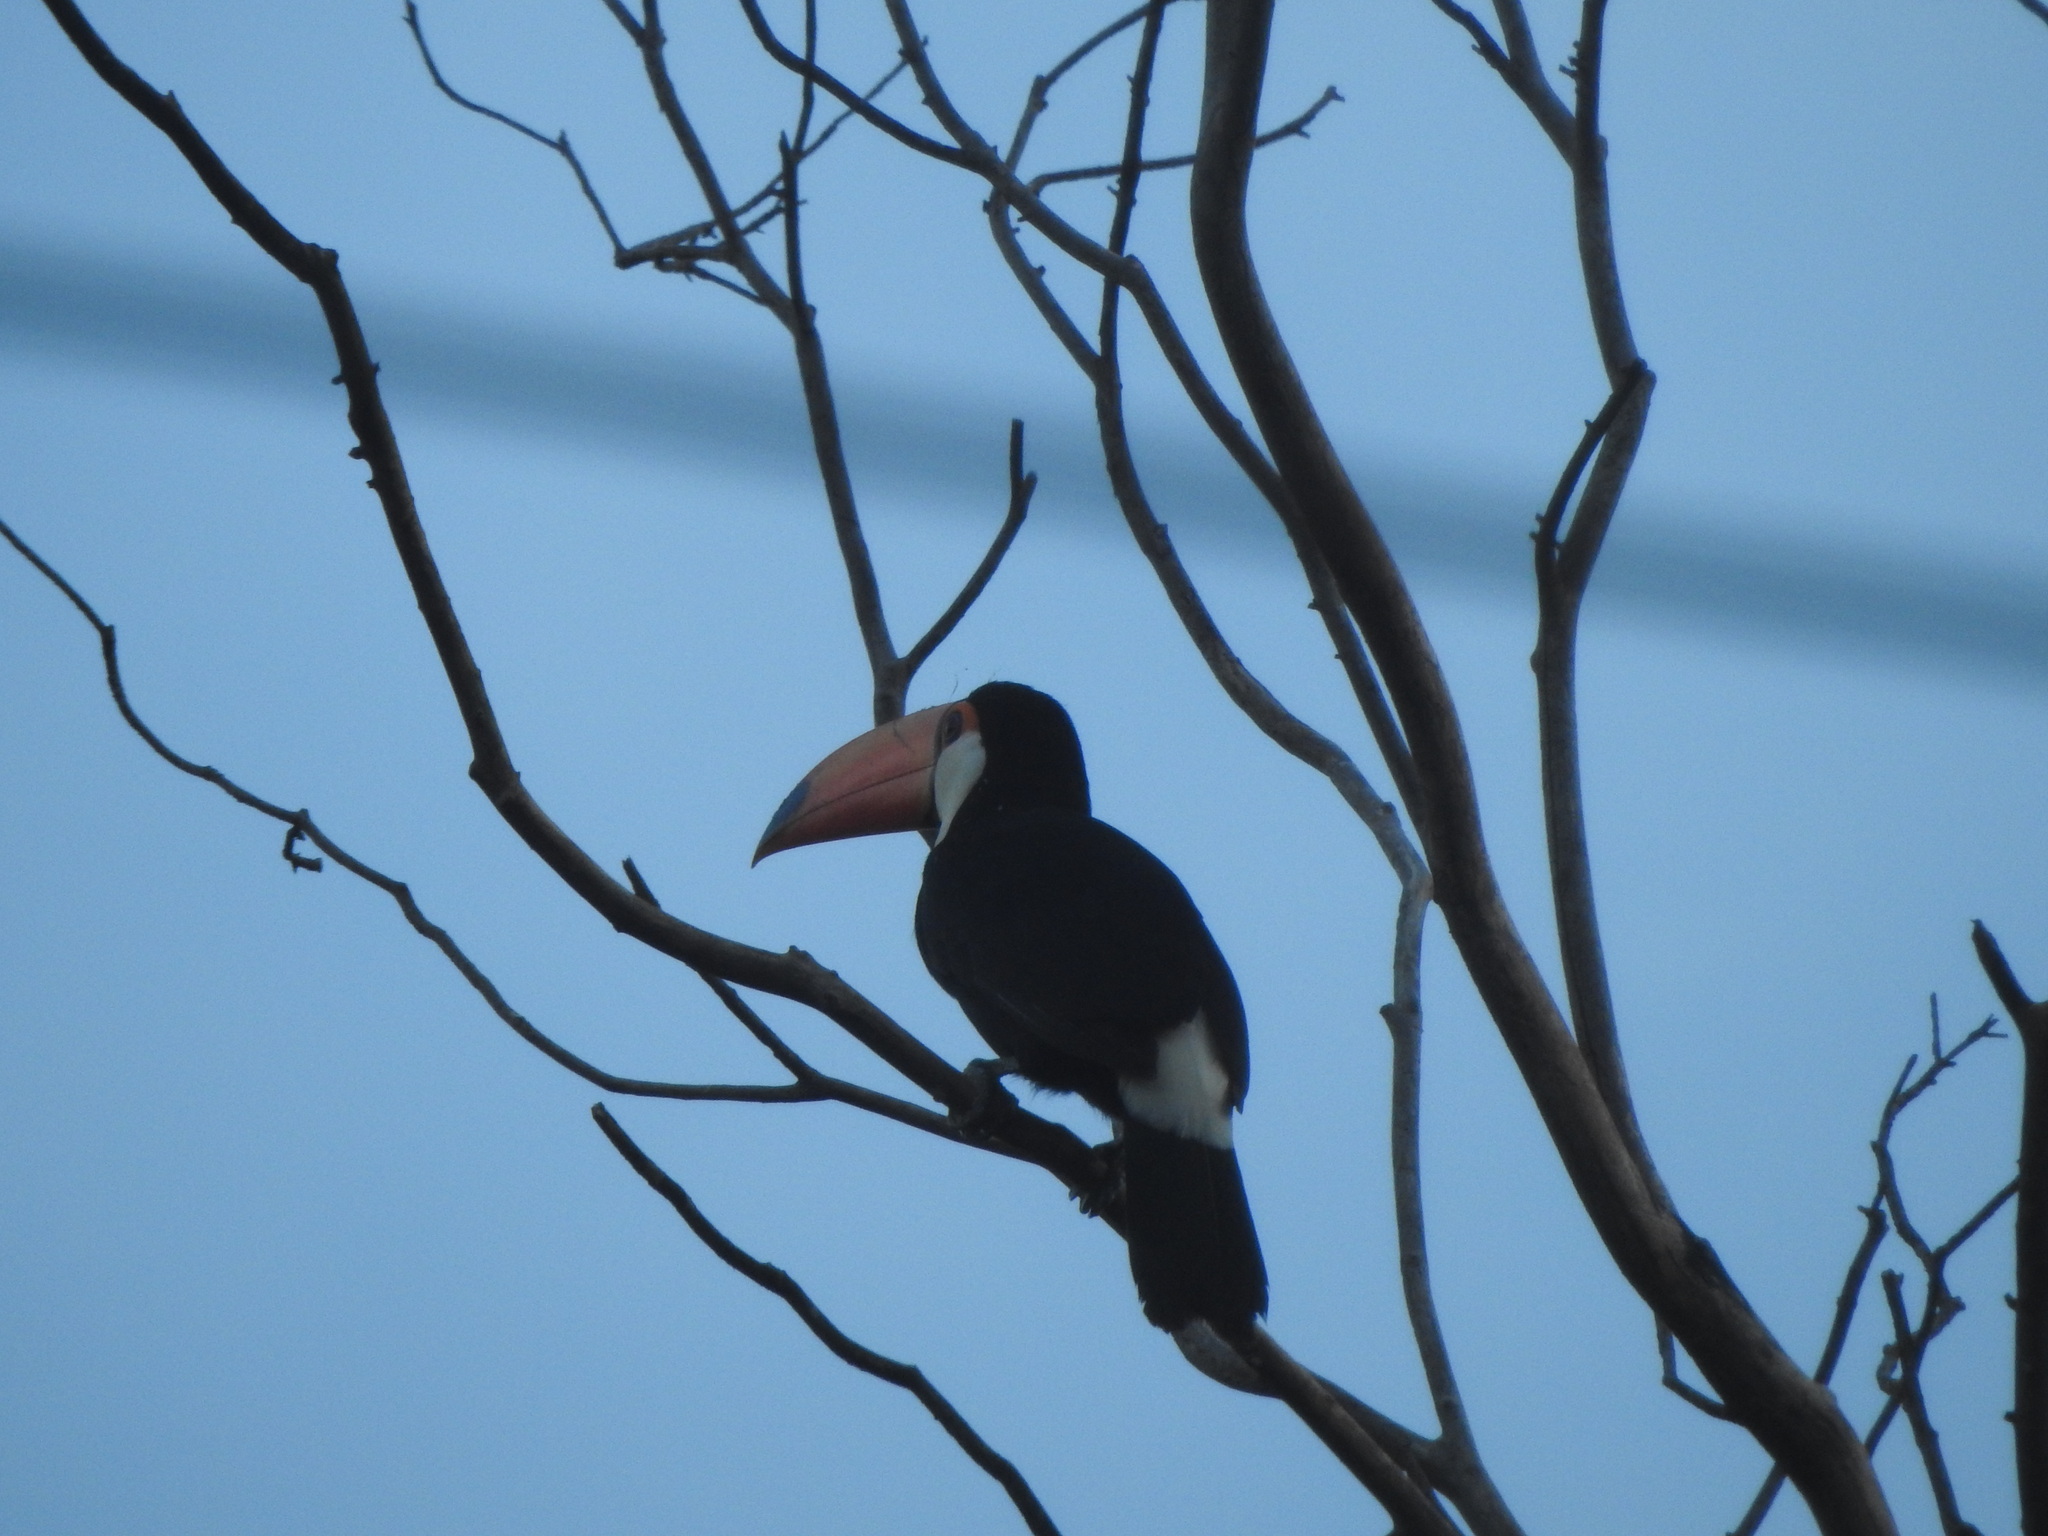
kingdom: Animalia
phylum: Chordata
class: Aves
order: Piciformes
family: Ramphastidae
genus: Ramphastos
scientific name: Ramphastos toco
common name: Toco toucan
